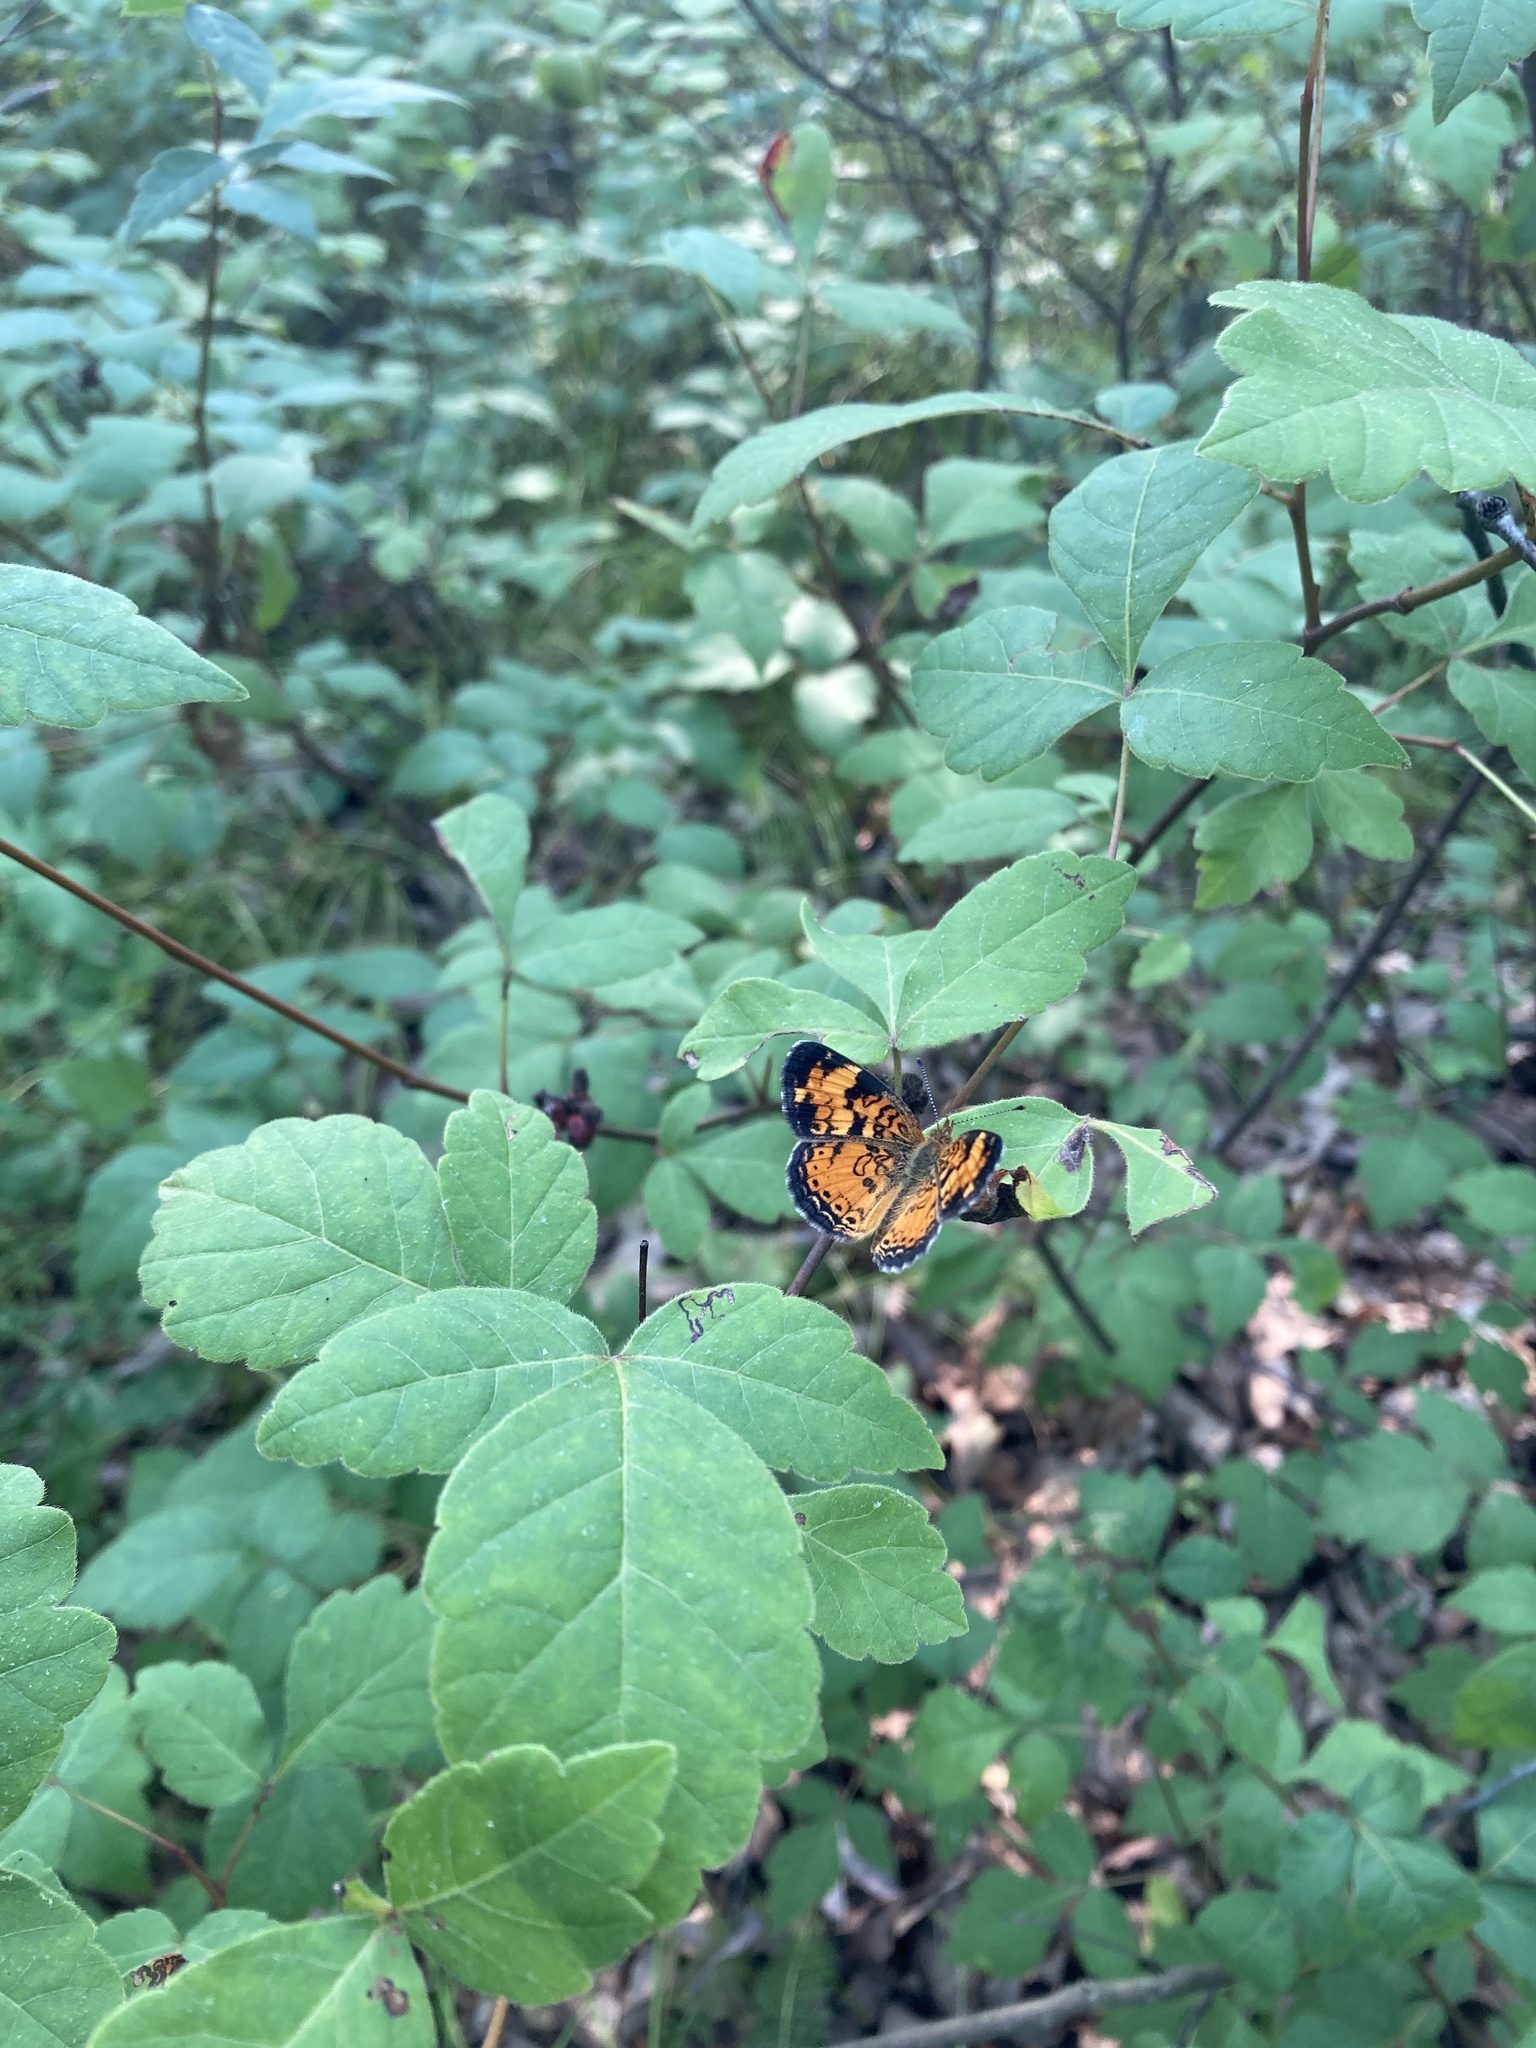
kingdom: Animalia
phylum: Arthropoda
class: Insecta
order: Lepidoptera
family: Nymphalidae
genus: Phyciodes
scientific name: Phyciodes tharos
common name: Pearl crescent
